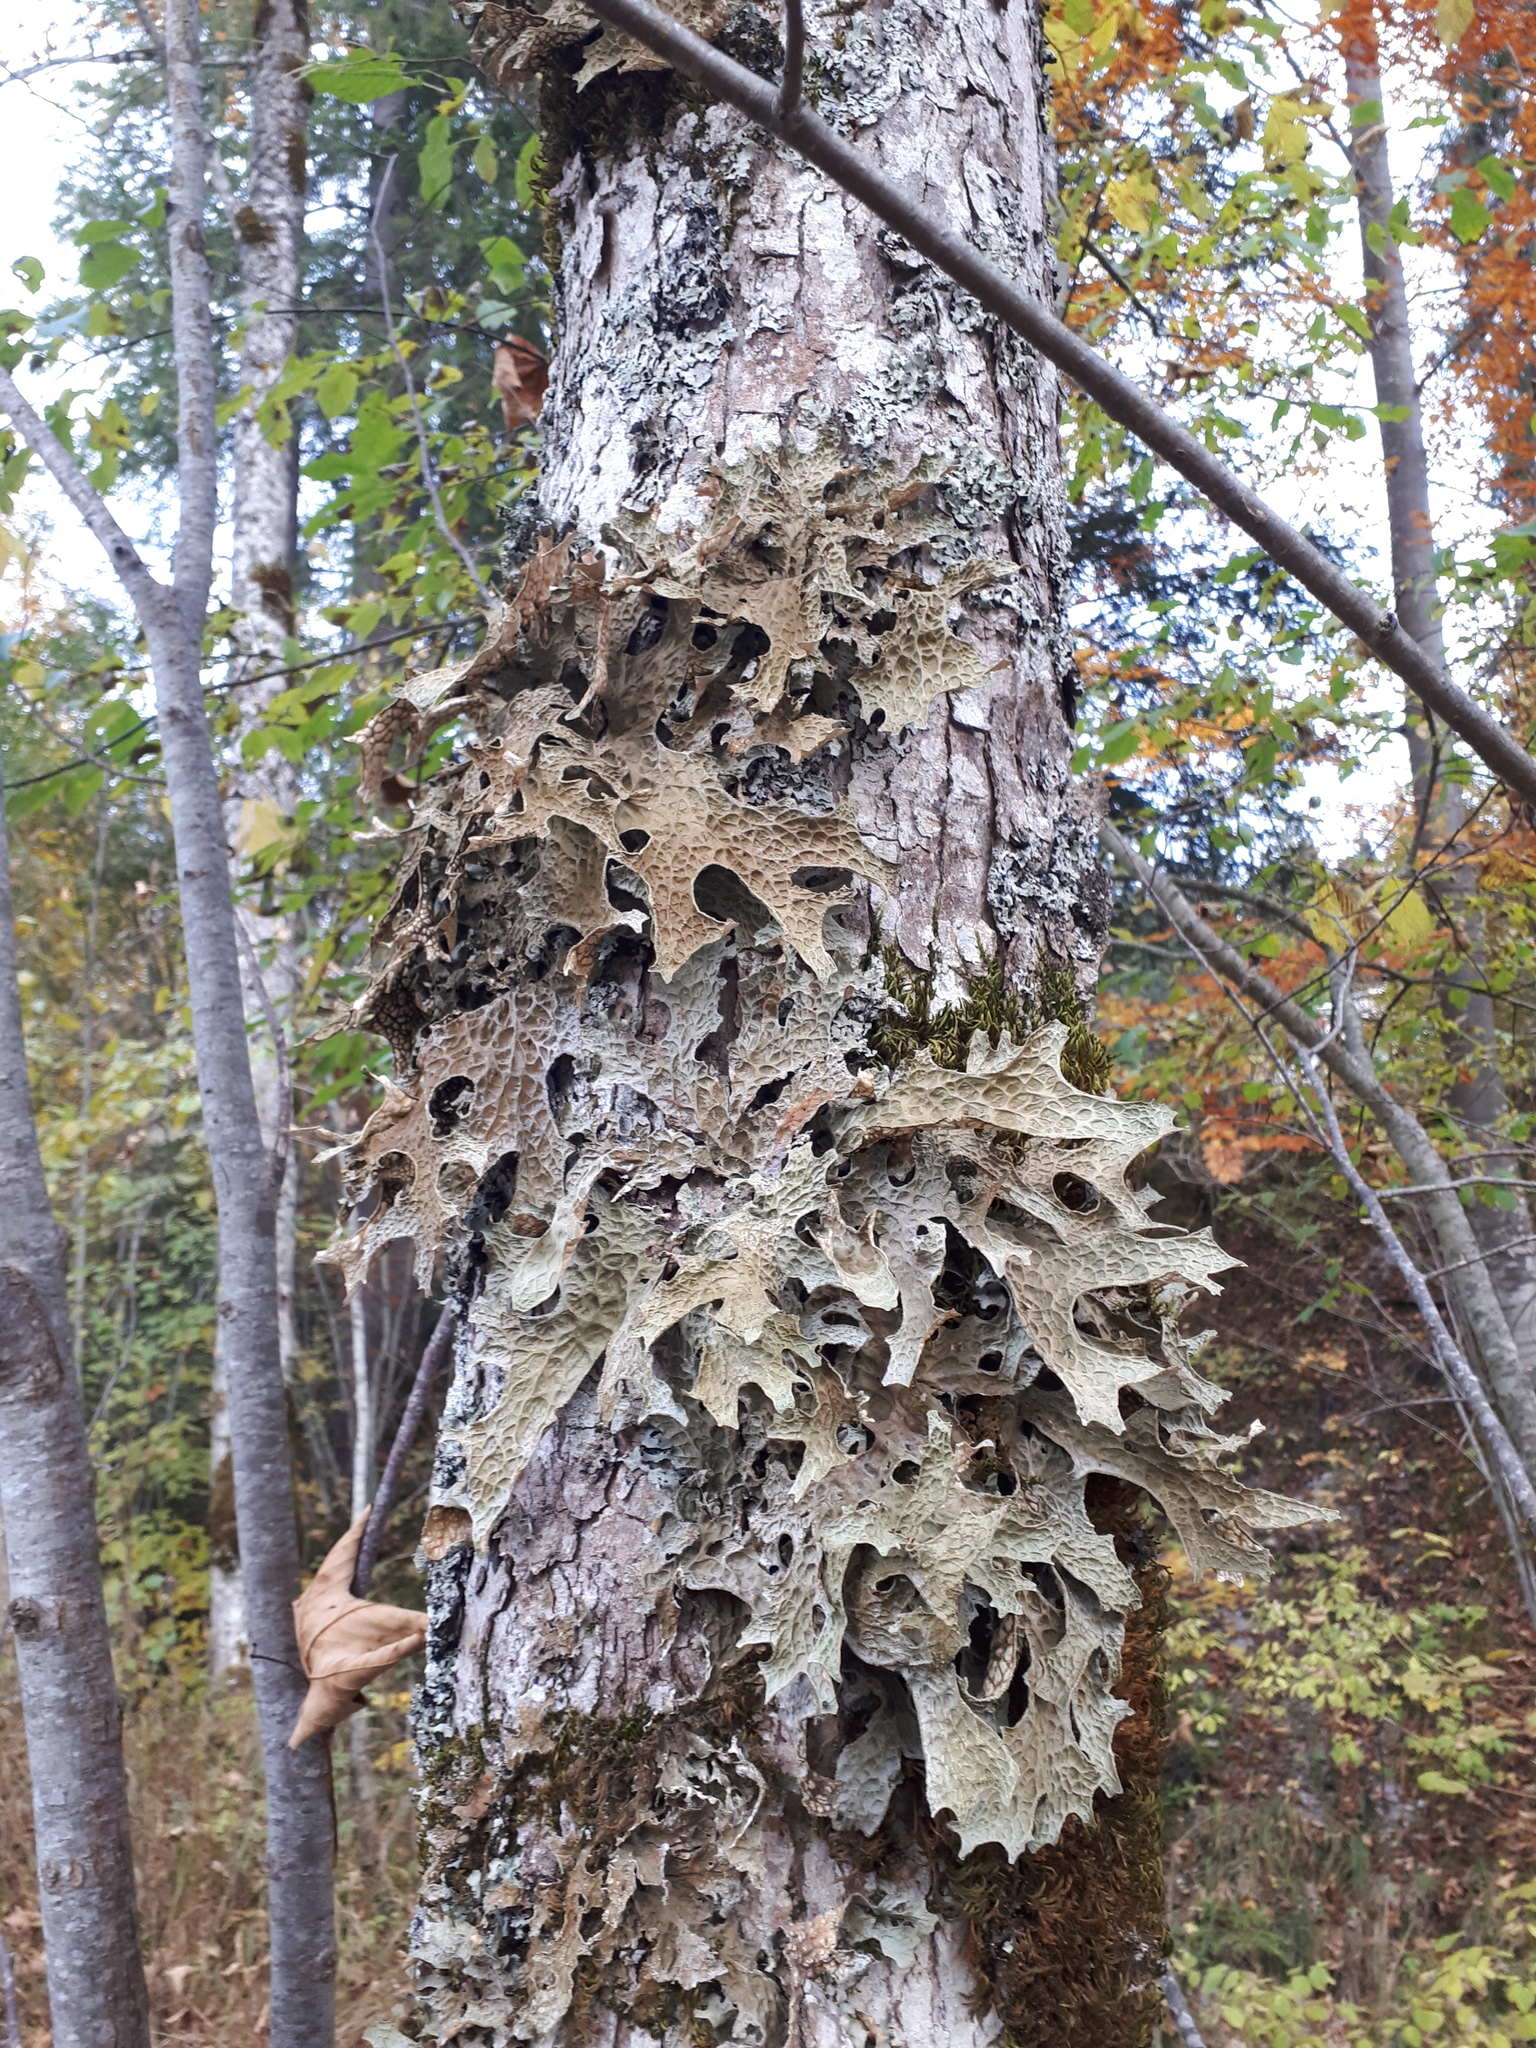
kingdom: Fungi
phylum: Ascomycota
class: Lecanoromycetes
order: Peltigerales
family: Lobariaceae
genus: Lobaria
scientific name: Lobaria pulmonaria
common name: Lungwort
